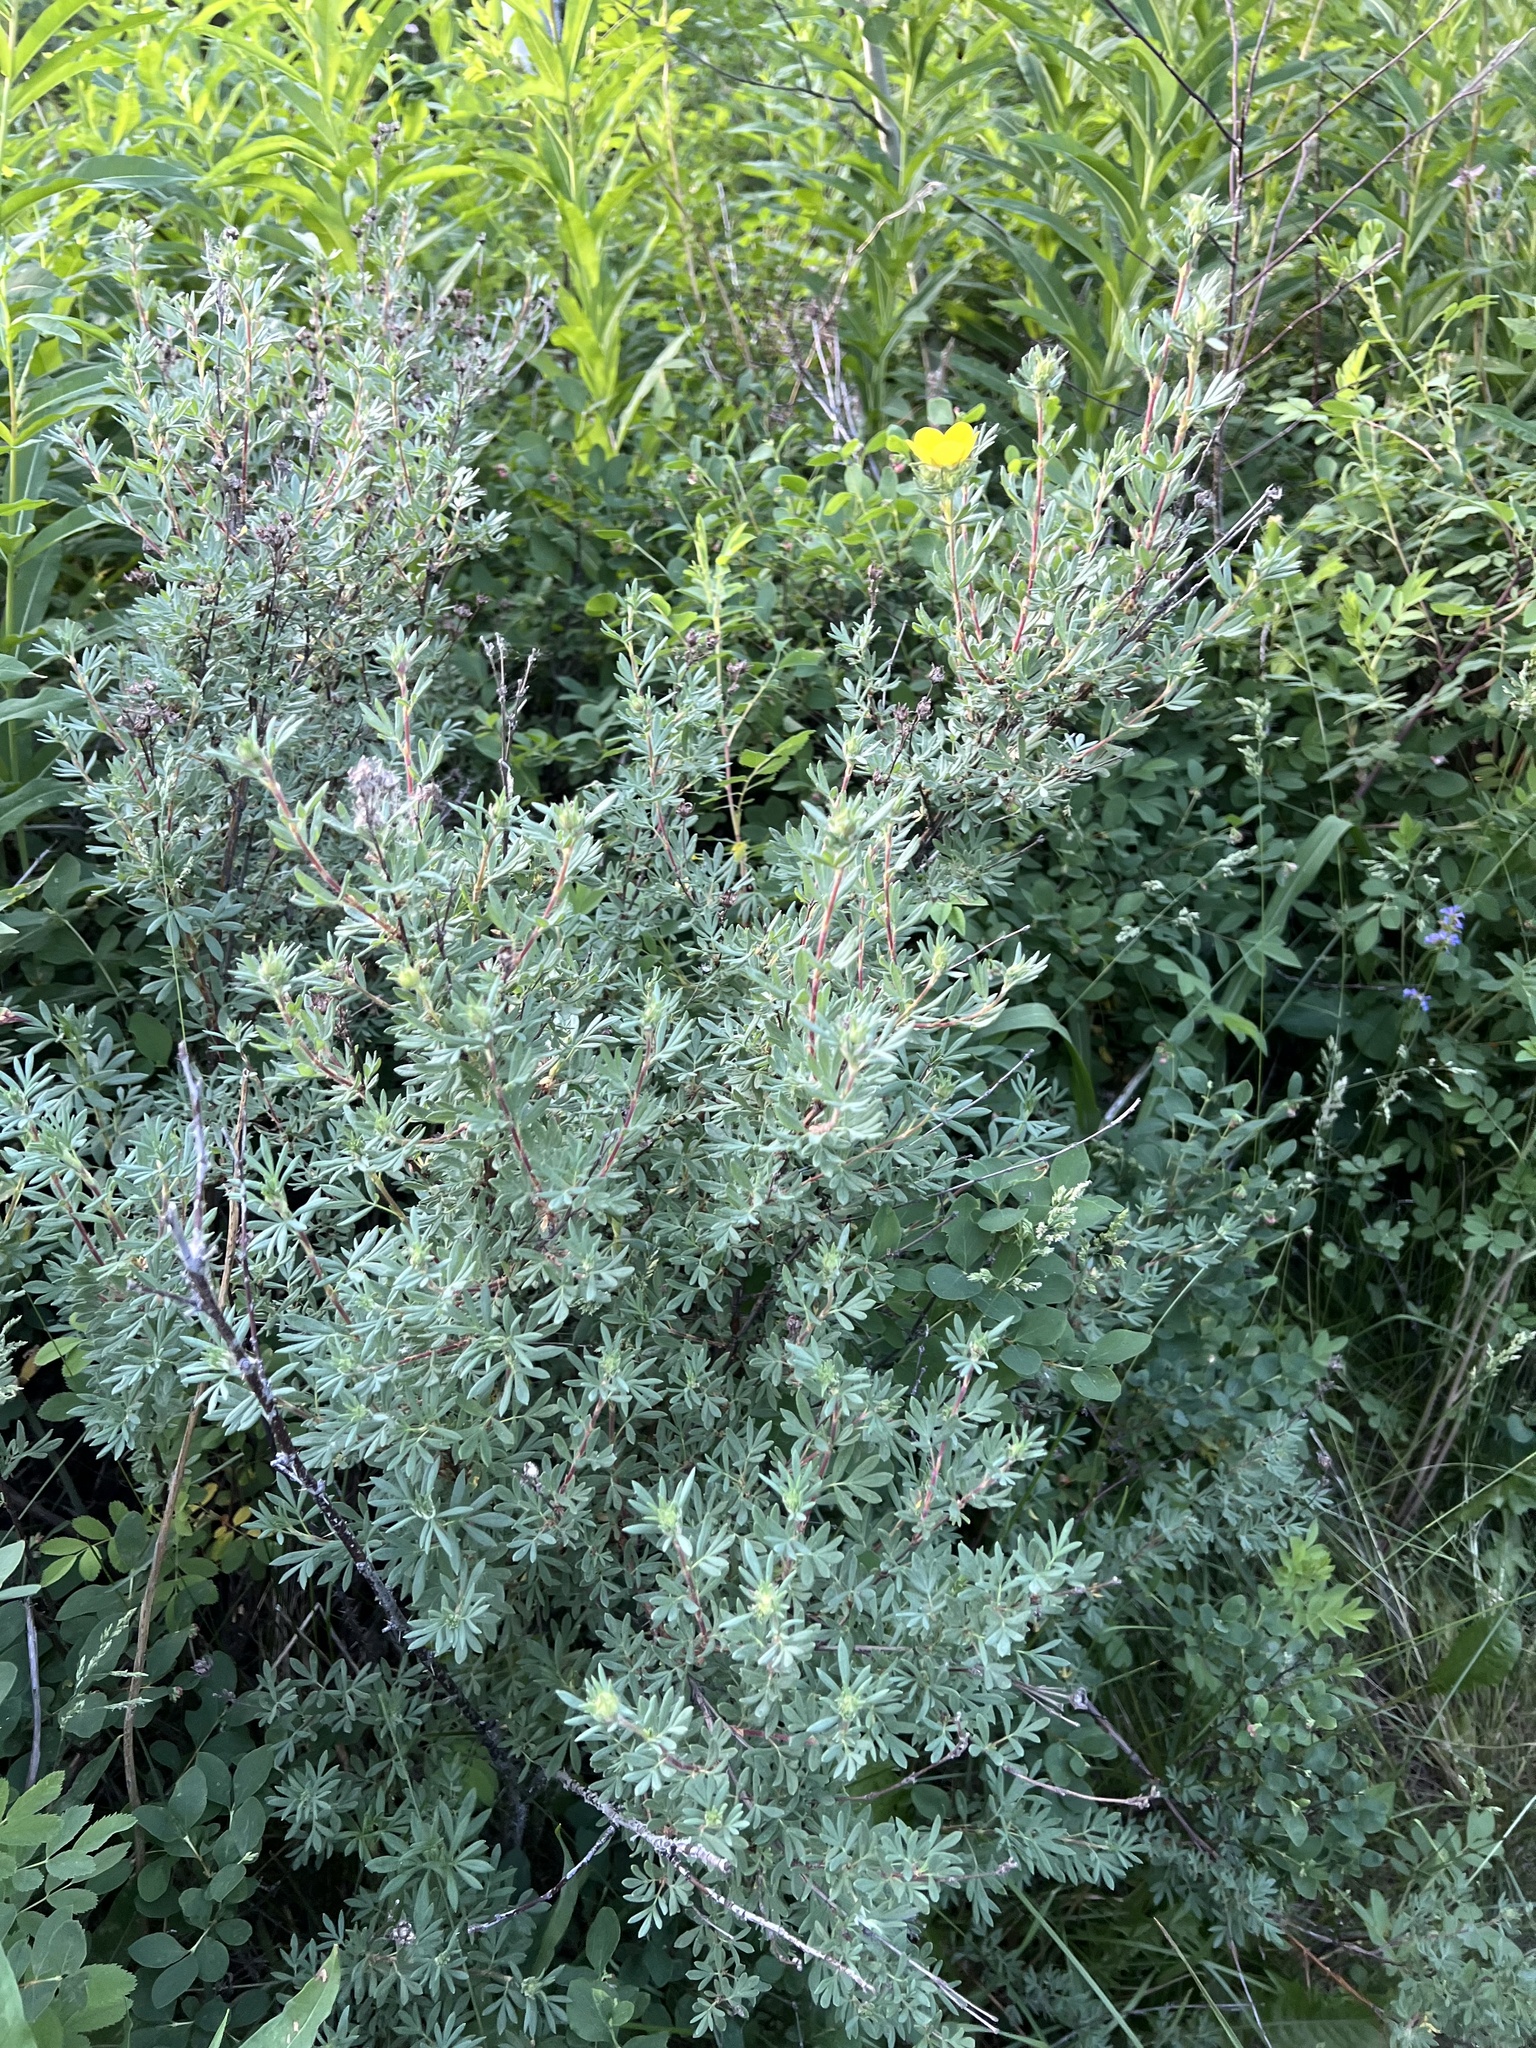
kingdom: Plantae
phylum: Tracheophyta
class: Magnoliopsida
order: Rosales
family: Rosaceae
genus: Dasiphora
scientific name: Dasiphora fruticosa
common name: Shrubby cinquefoil
